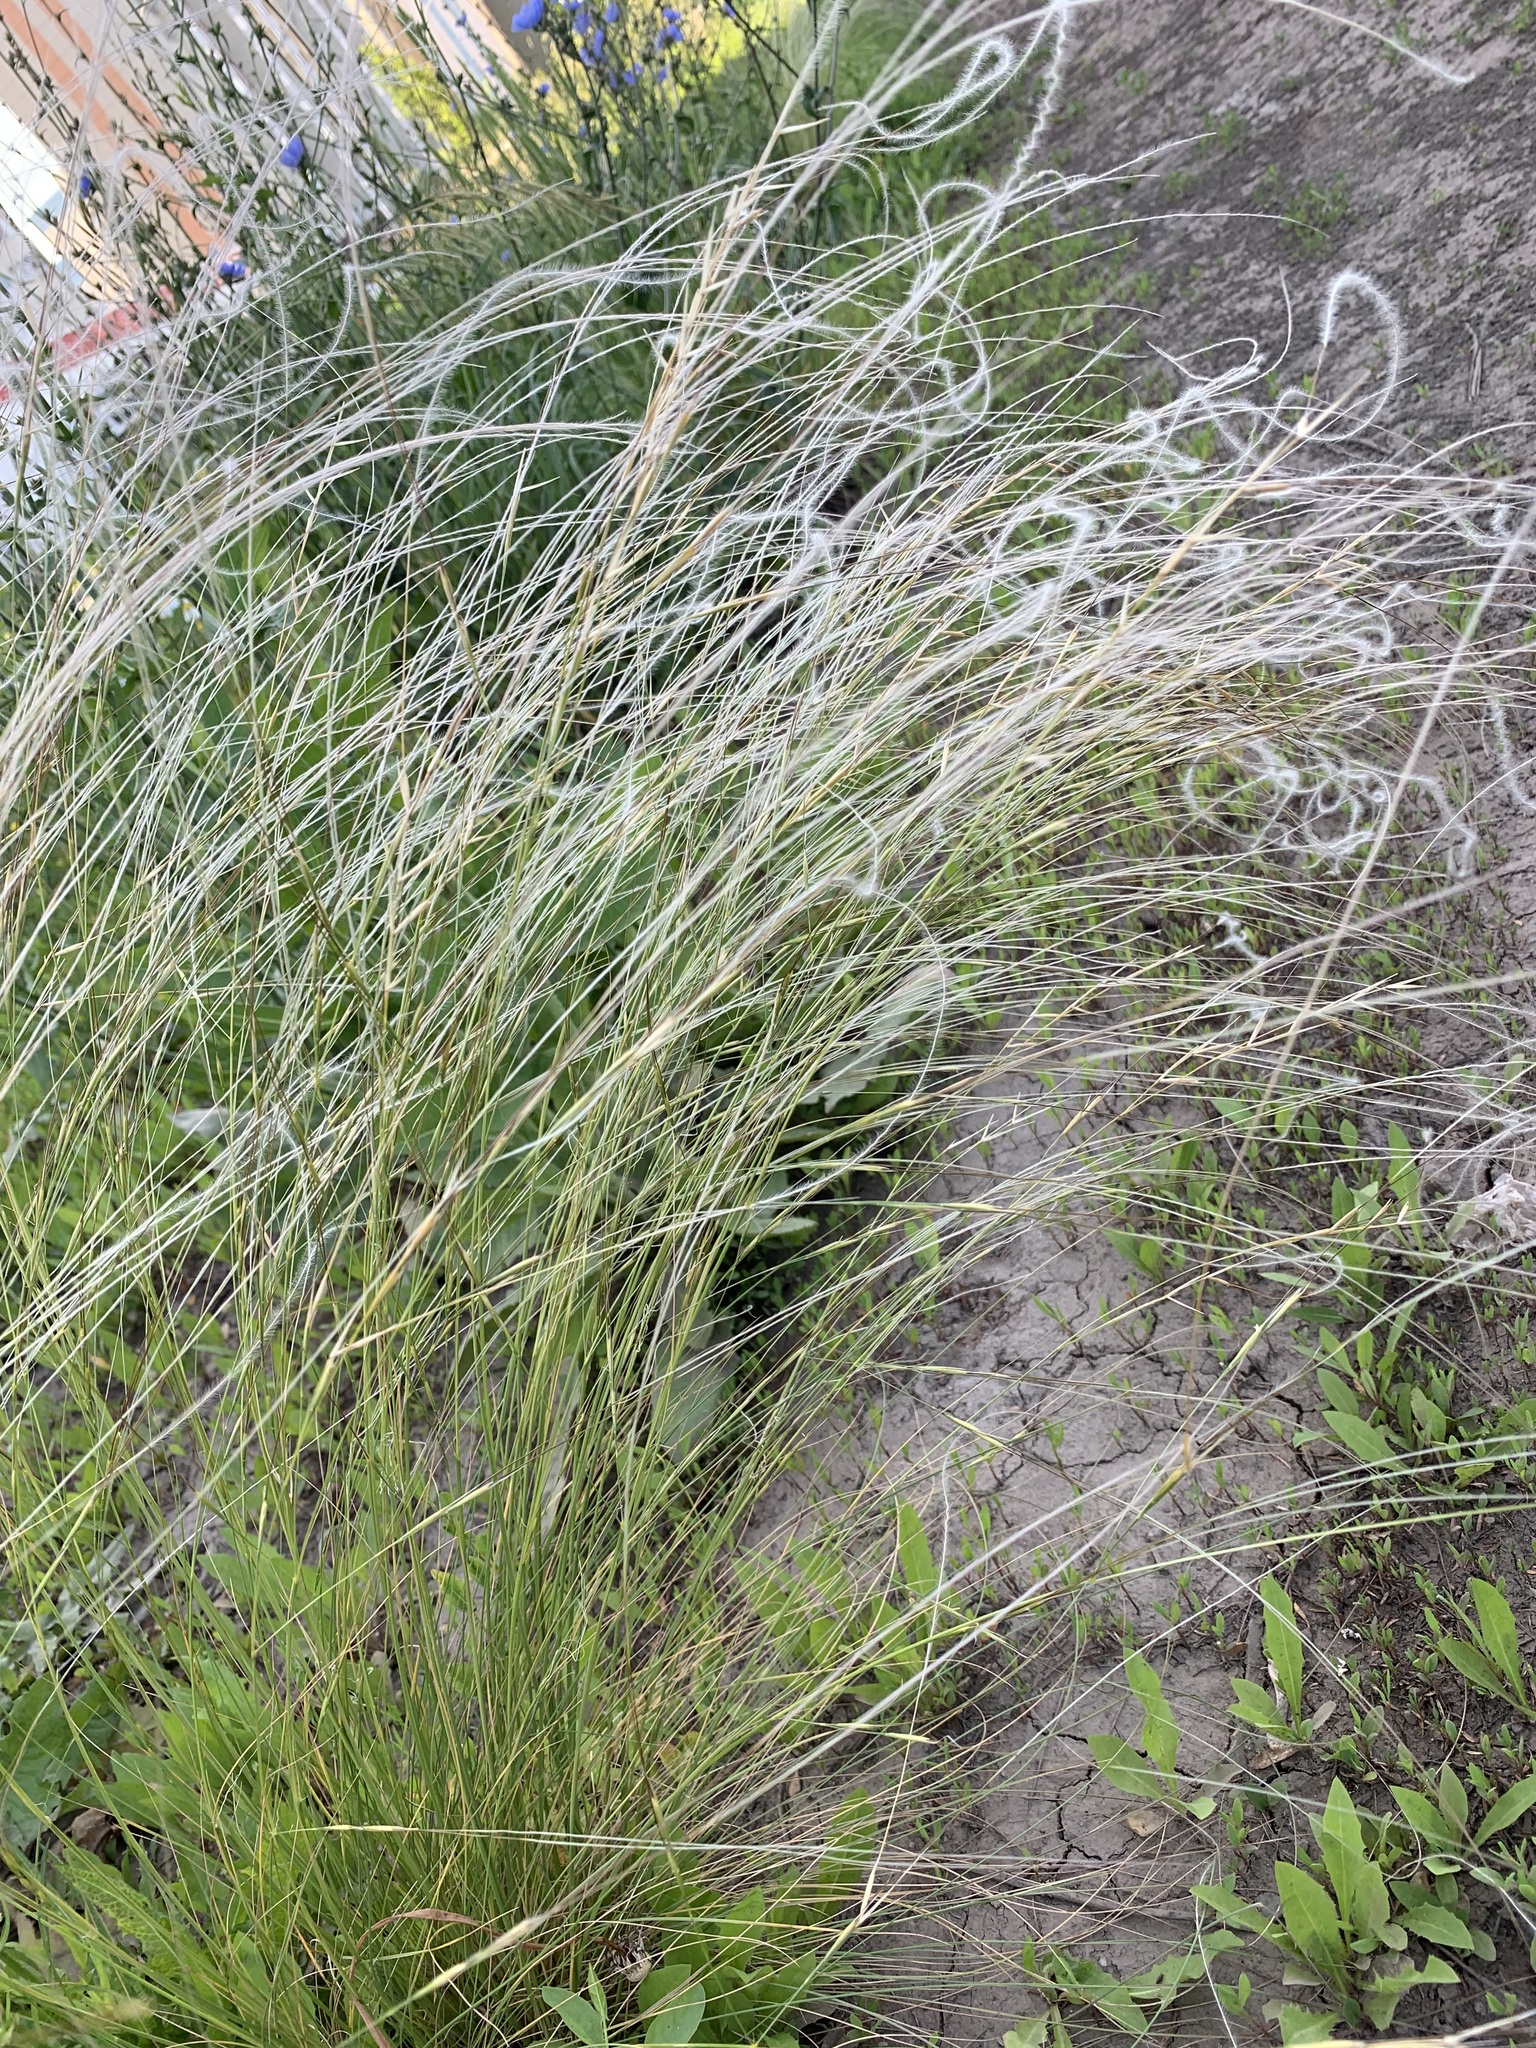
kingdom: Plantae
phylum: Tracheophyta
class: Liliopsida
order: Poales
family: Poaceae
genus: Stipa
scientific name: Stipa lessingiana
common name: Needle grass
